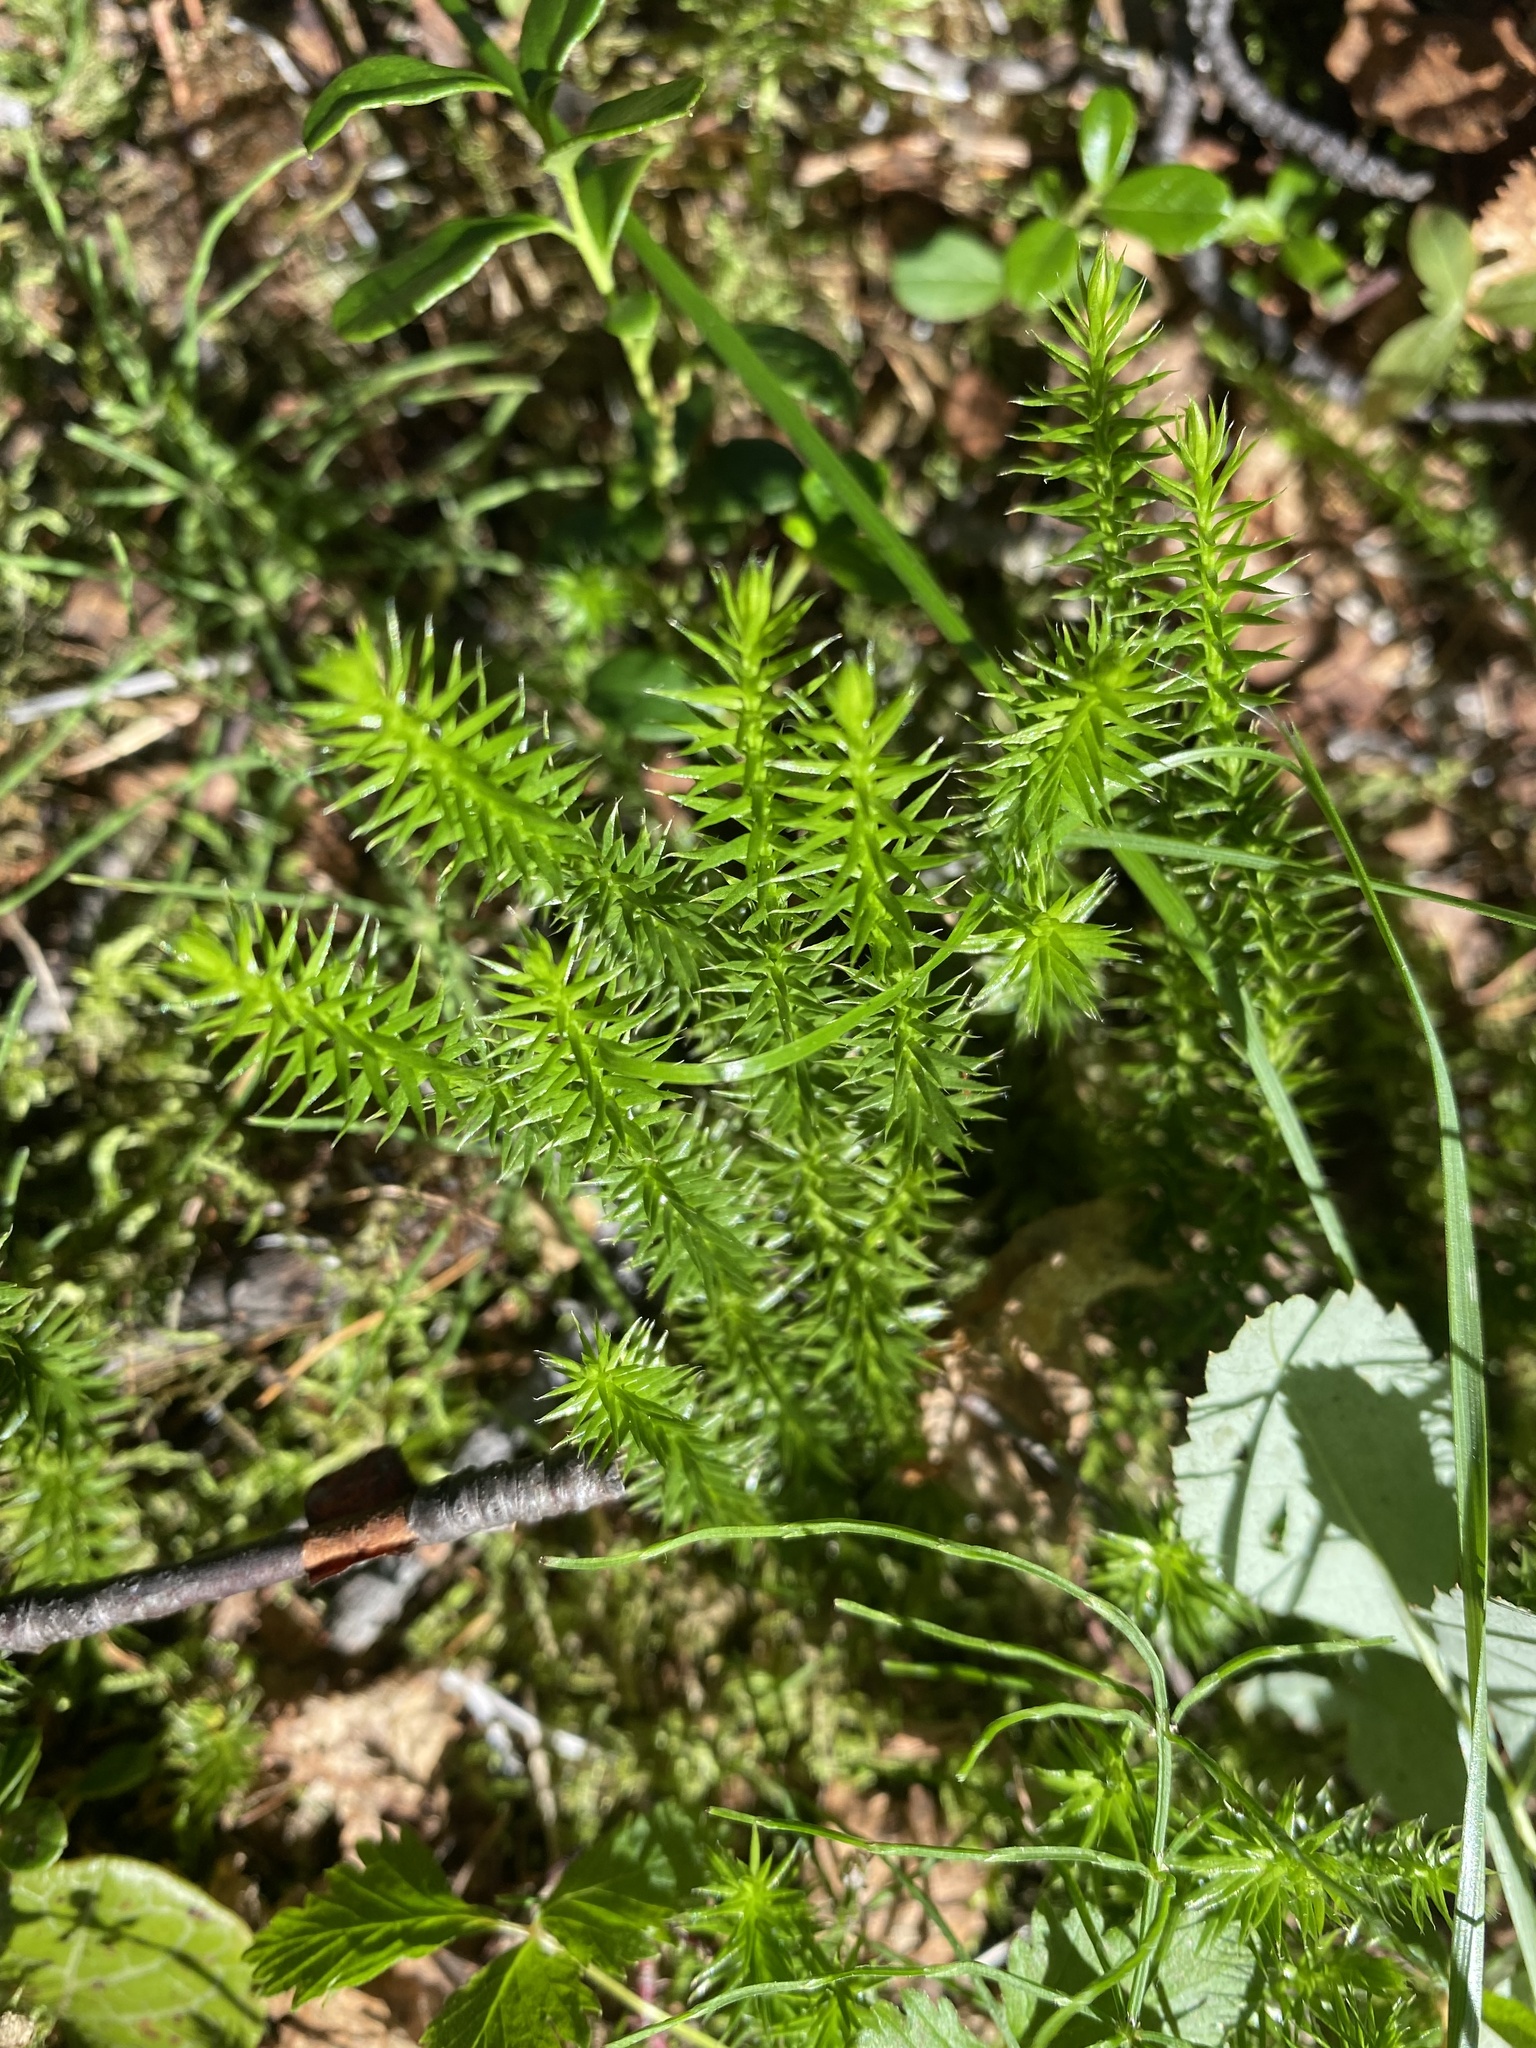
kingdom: Plantae
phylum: Tracheophyta
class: Lycopodiopsida
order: Lycopodiales
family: Lycopodiaceae
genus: Spinulum
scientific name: Spinulum annotinum
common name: Interrupted club-moss
